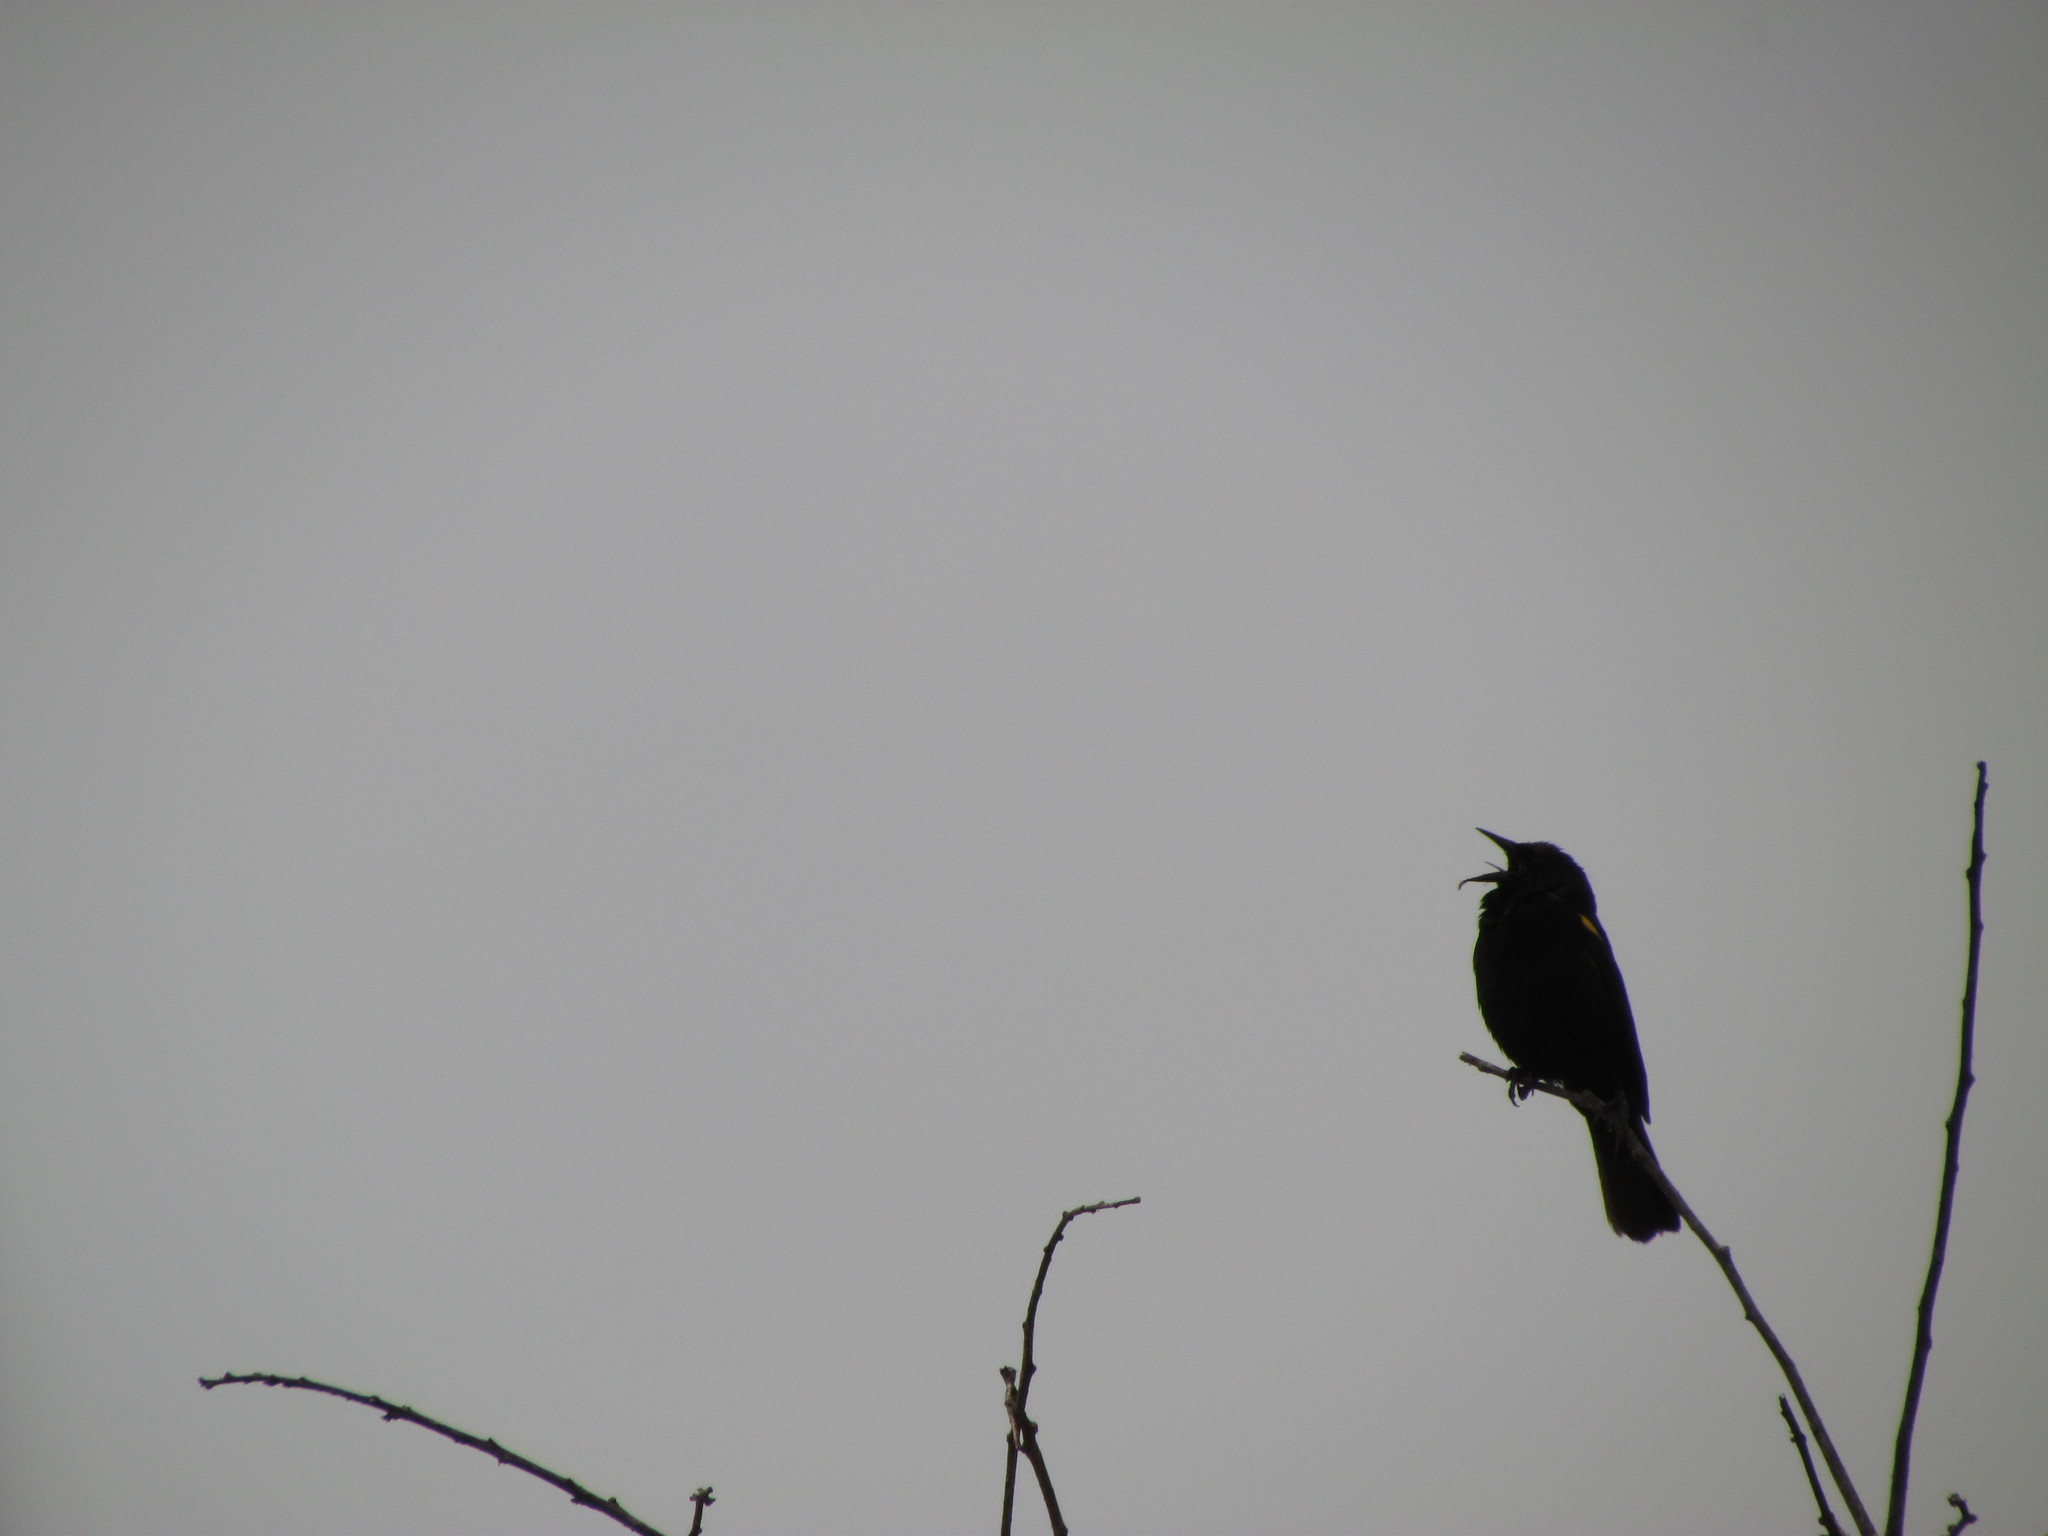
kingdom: Animalia
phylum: Chordata
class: Aves
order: Passeriformes
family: Icteridae
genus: Agelasticus
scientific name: Agelasticus thilius
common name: Yellow-winged blackbird
